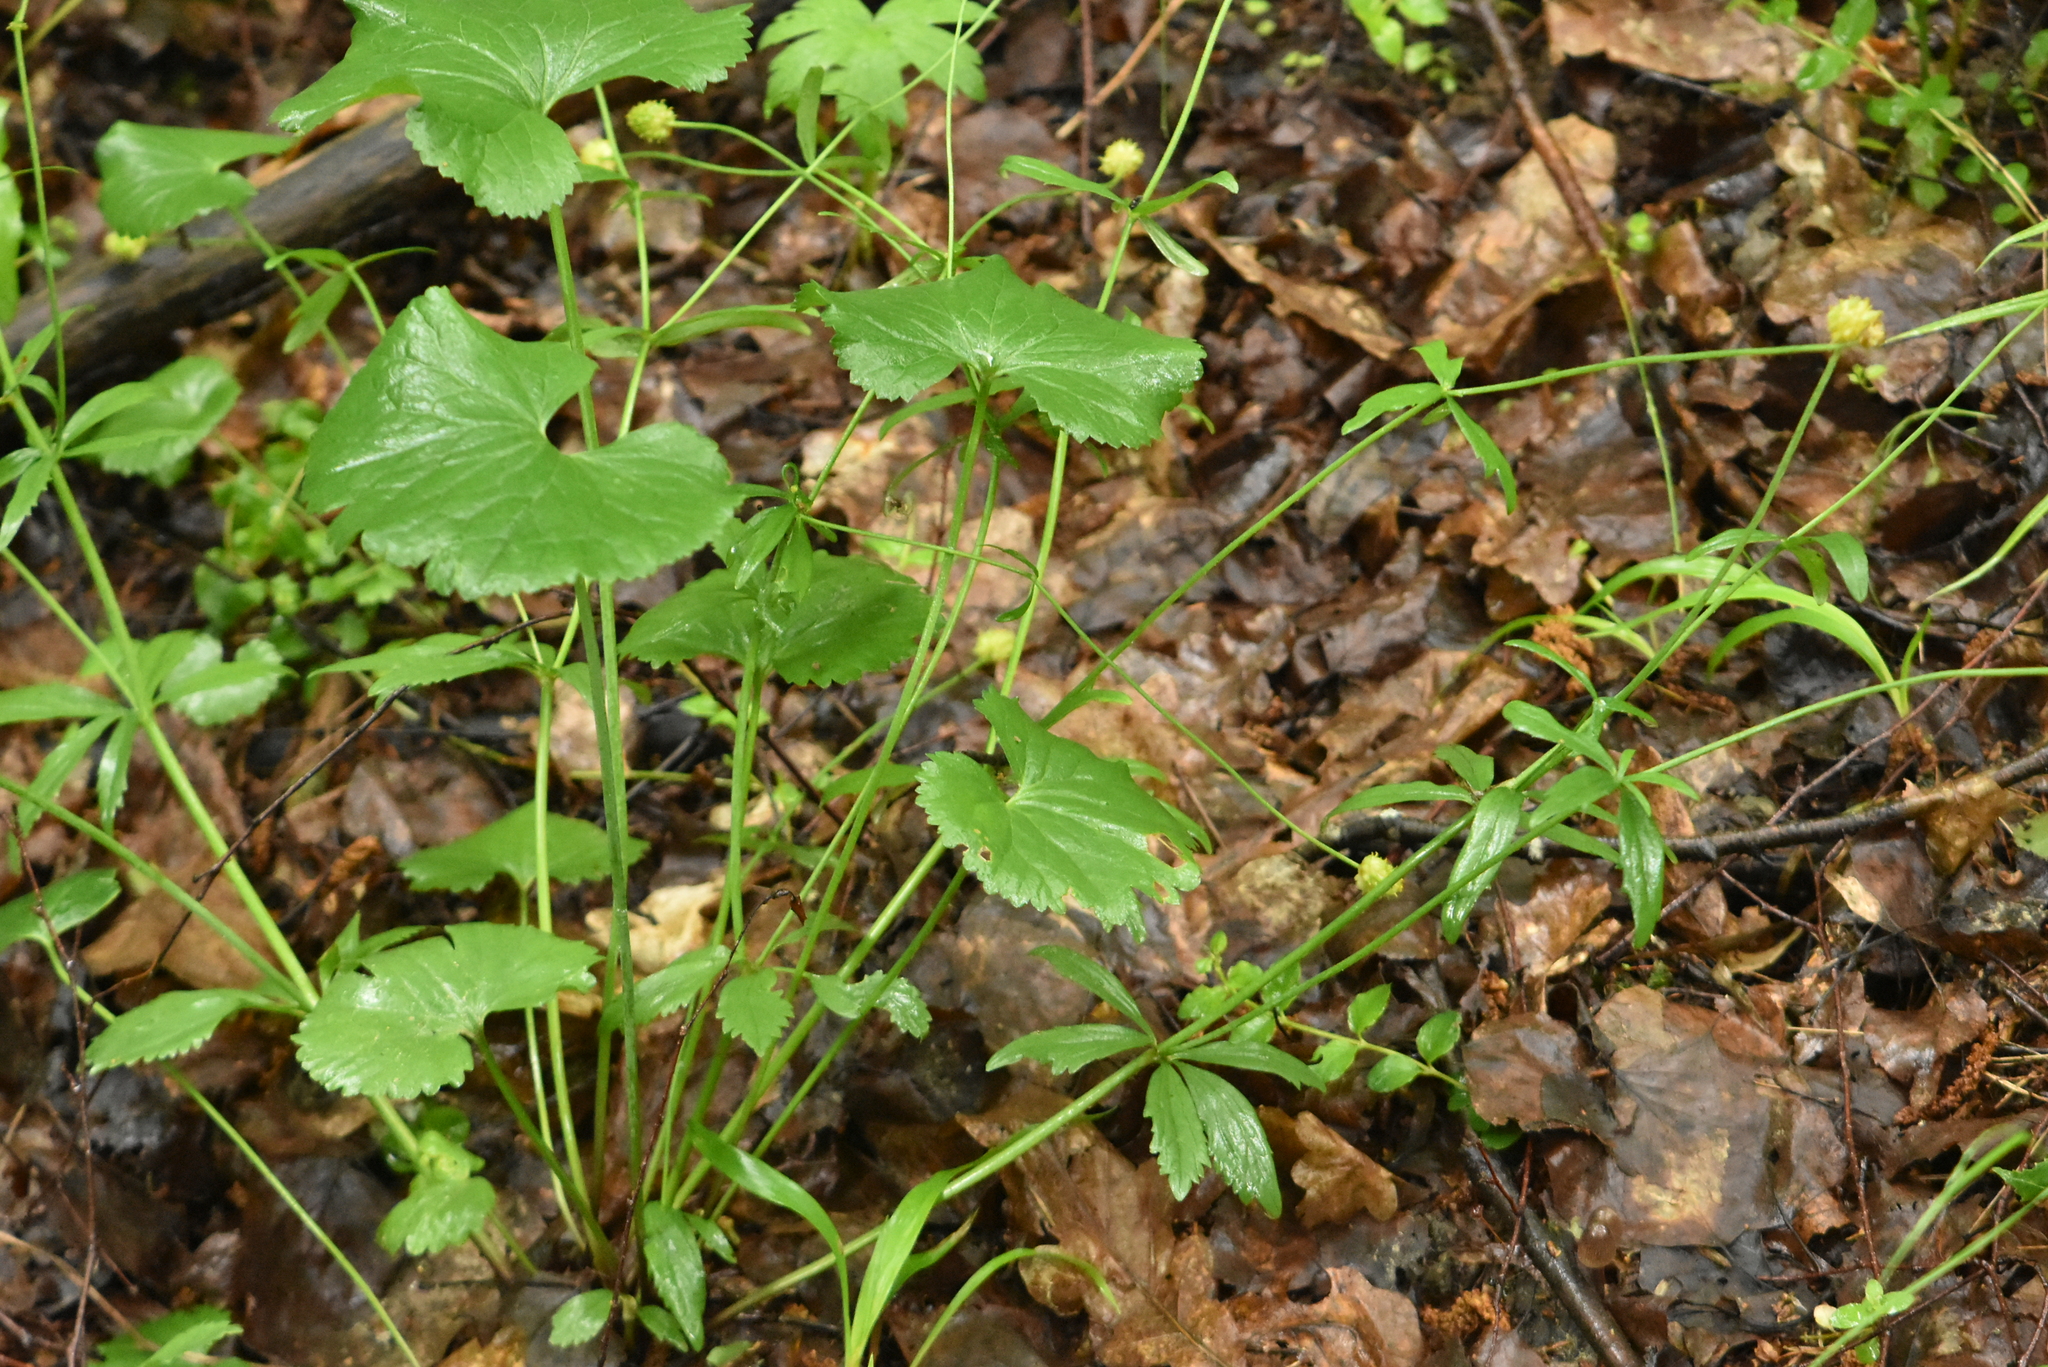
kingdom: Plantae
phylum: Tracheophyta
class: Magnoliopsida
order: Ranunculales
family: Ranunculaceae
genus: Ranunculus
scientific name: Ranunculus cassubicus
